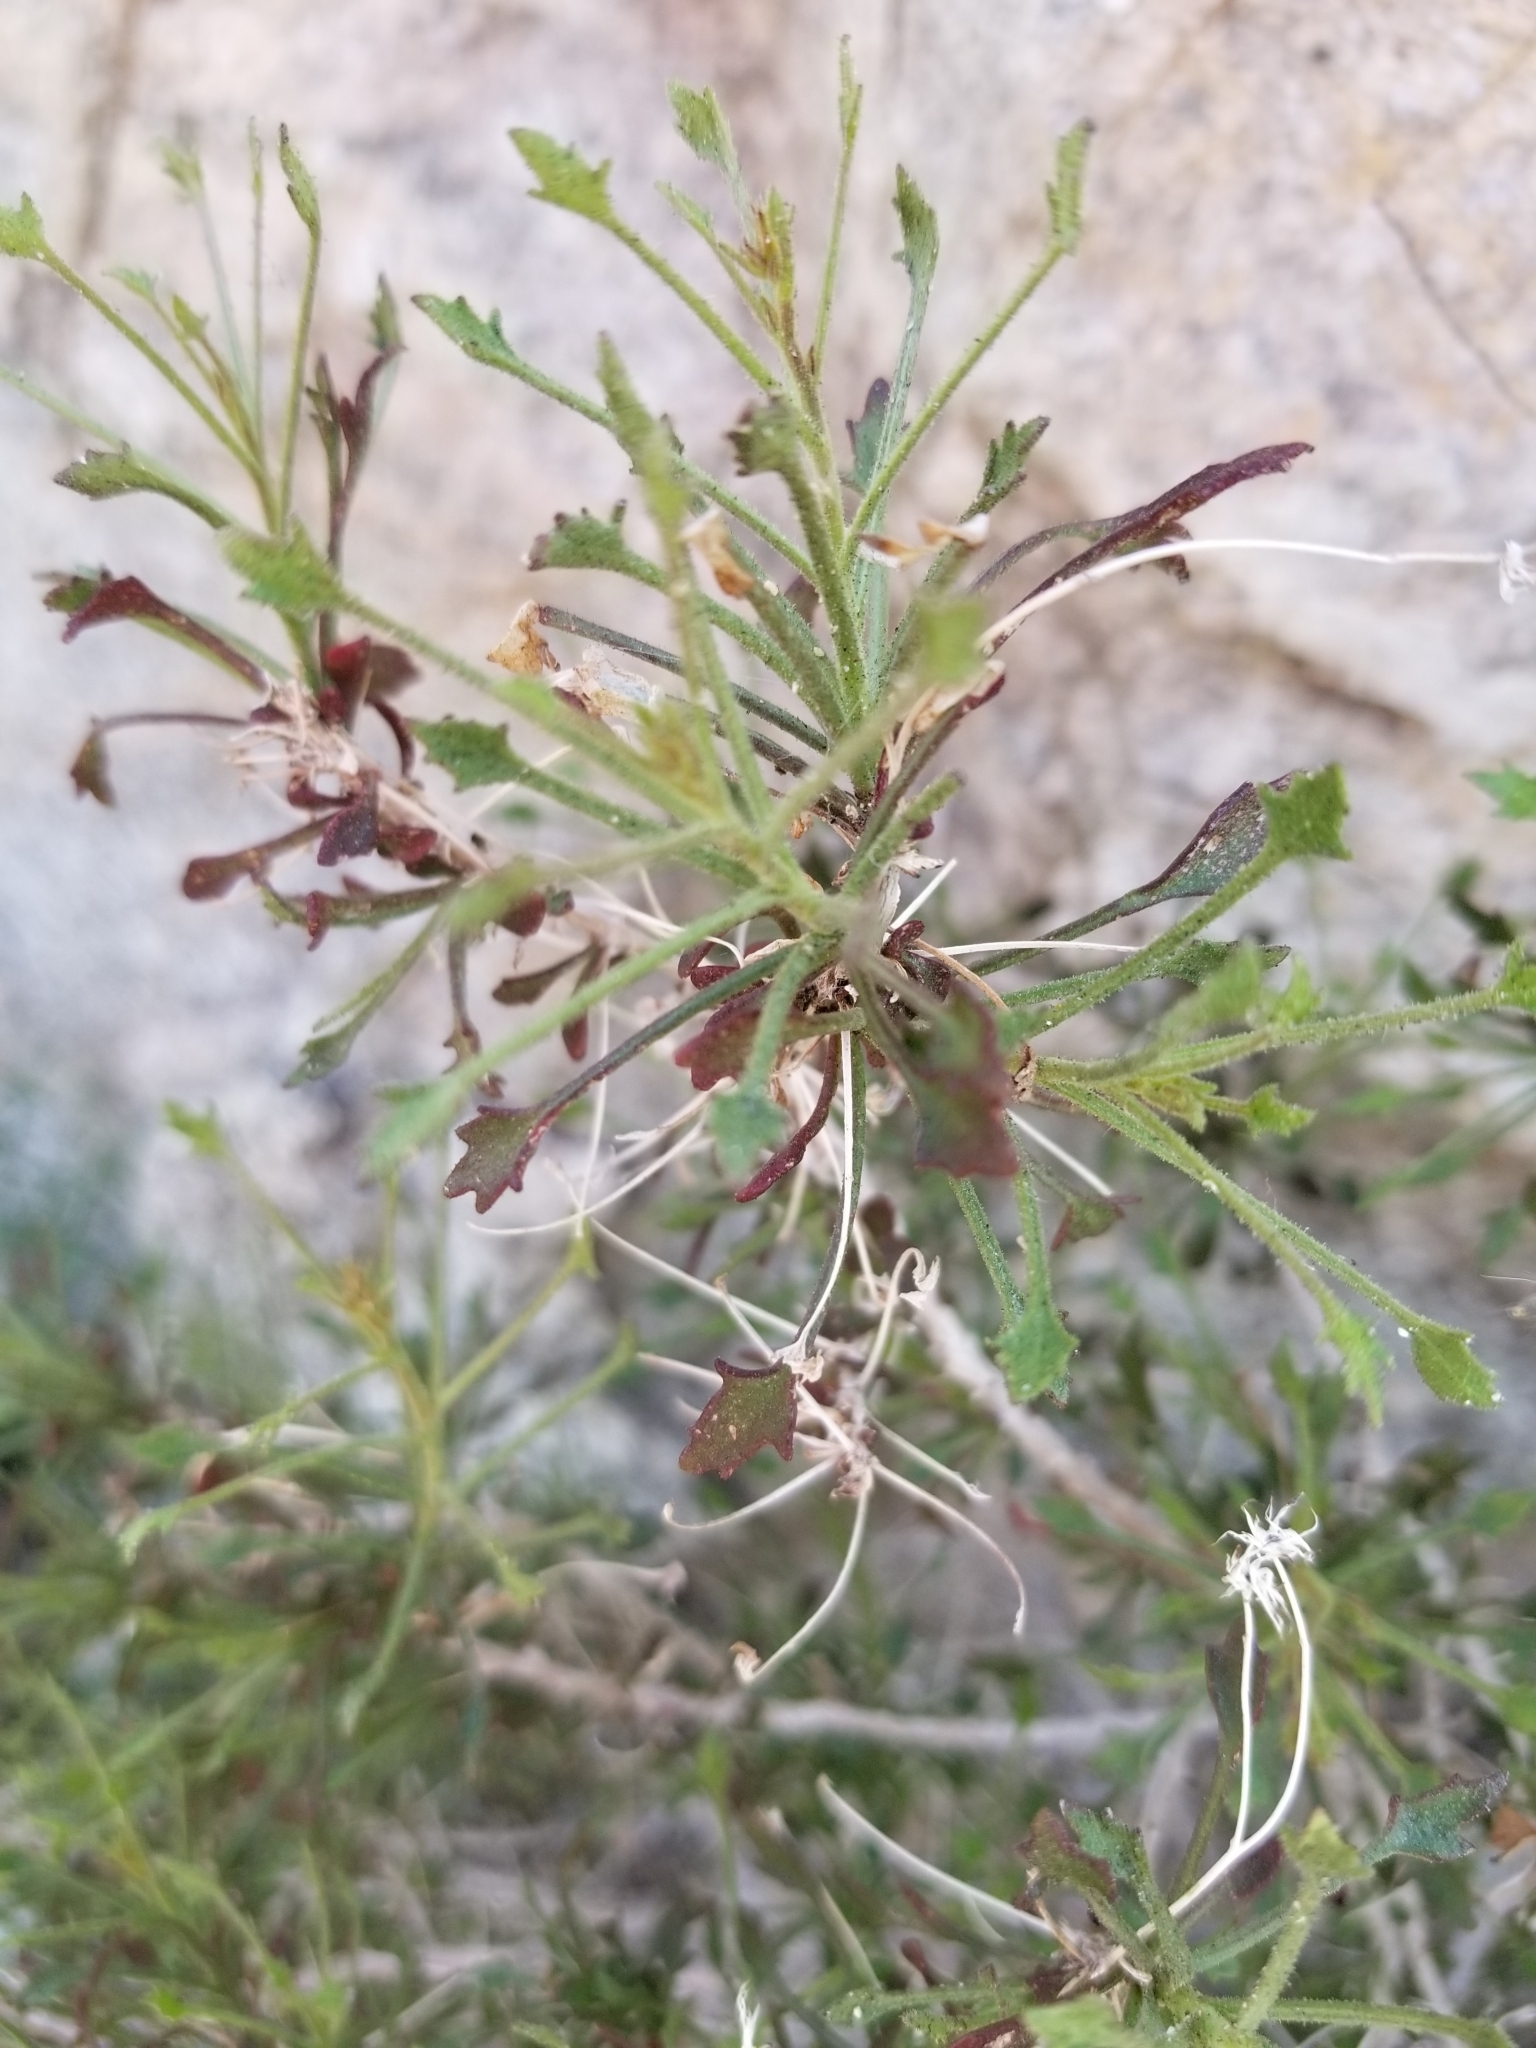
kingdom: Plantae
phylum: Tracheophyta
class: Magnoliopsida
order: Asterales
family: Asteraceae
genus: Pleurocoronis
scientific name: Pleurocoronis pluriseta
